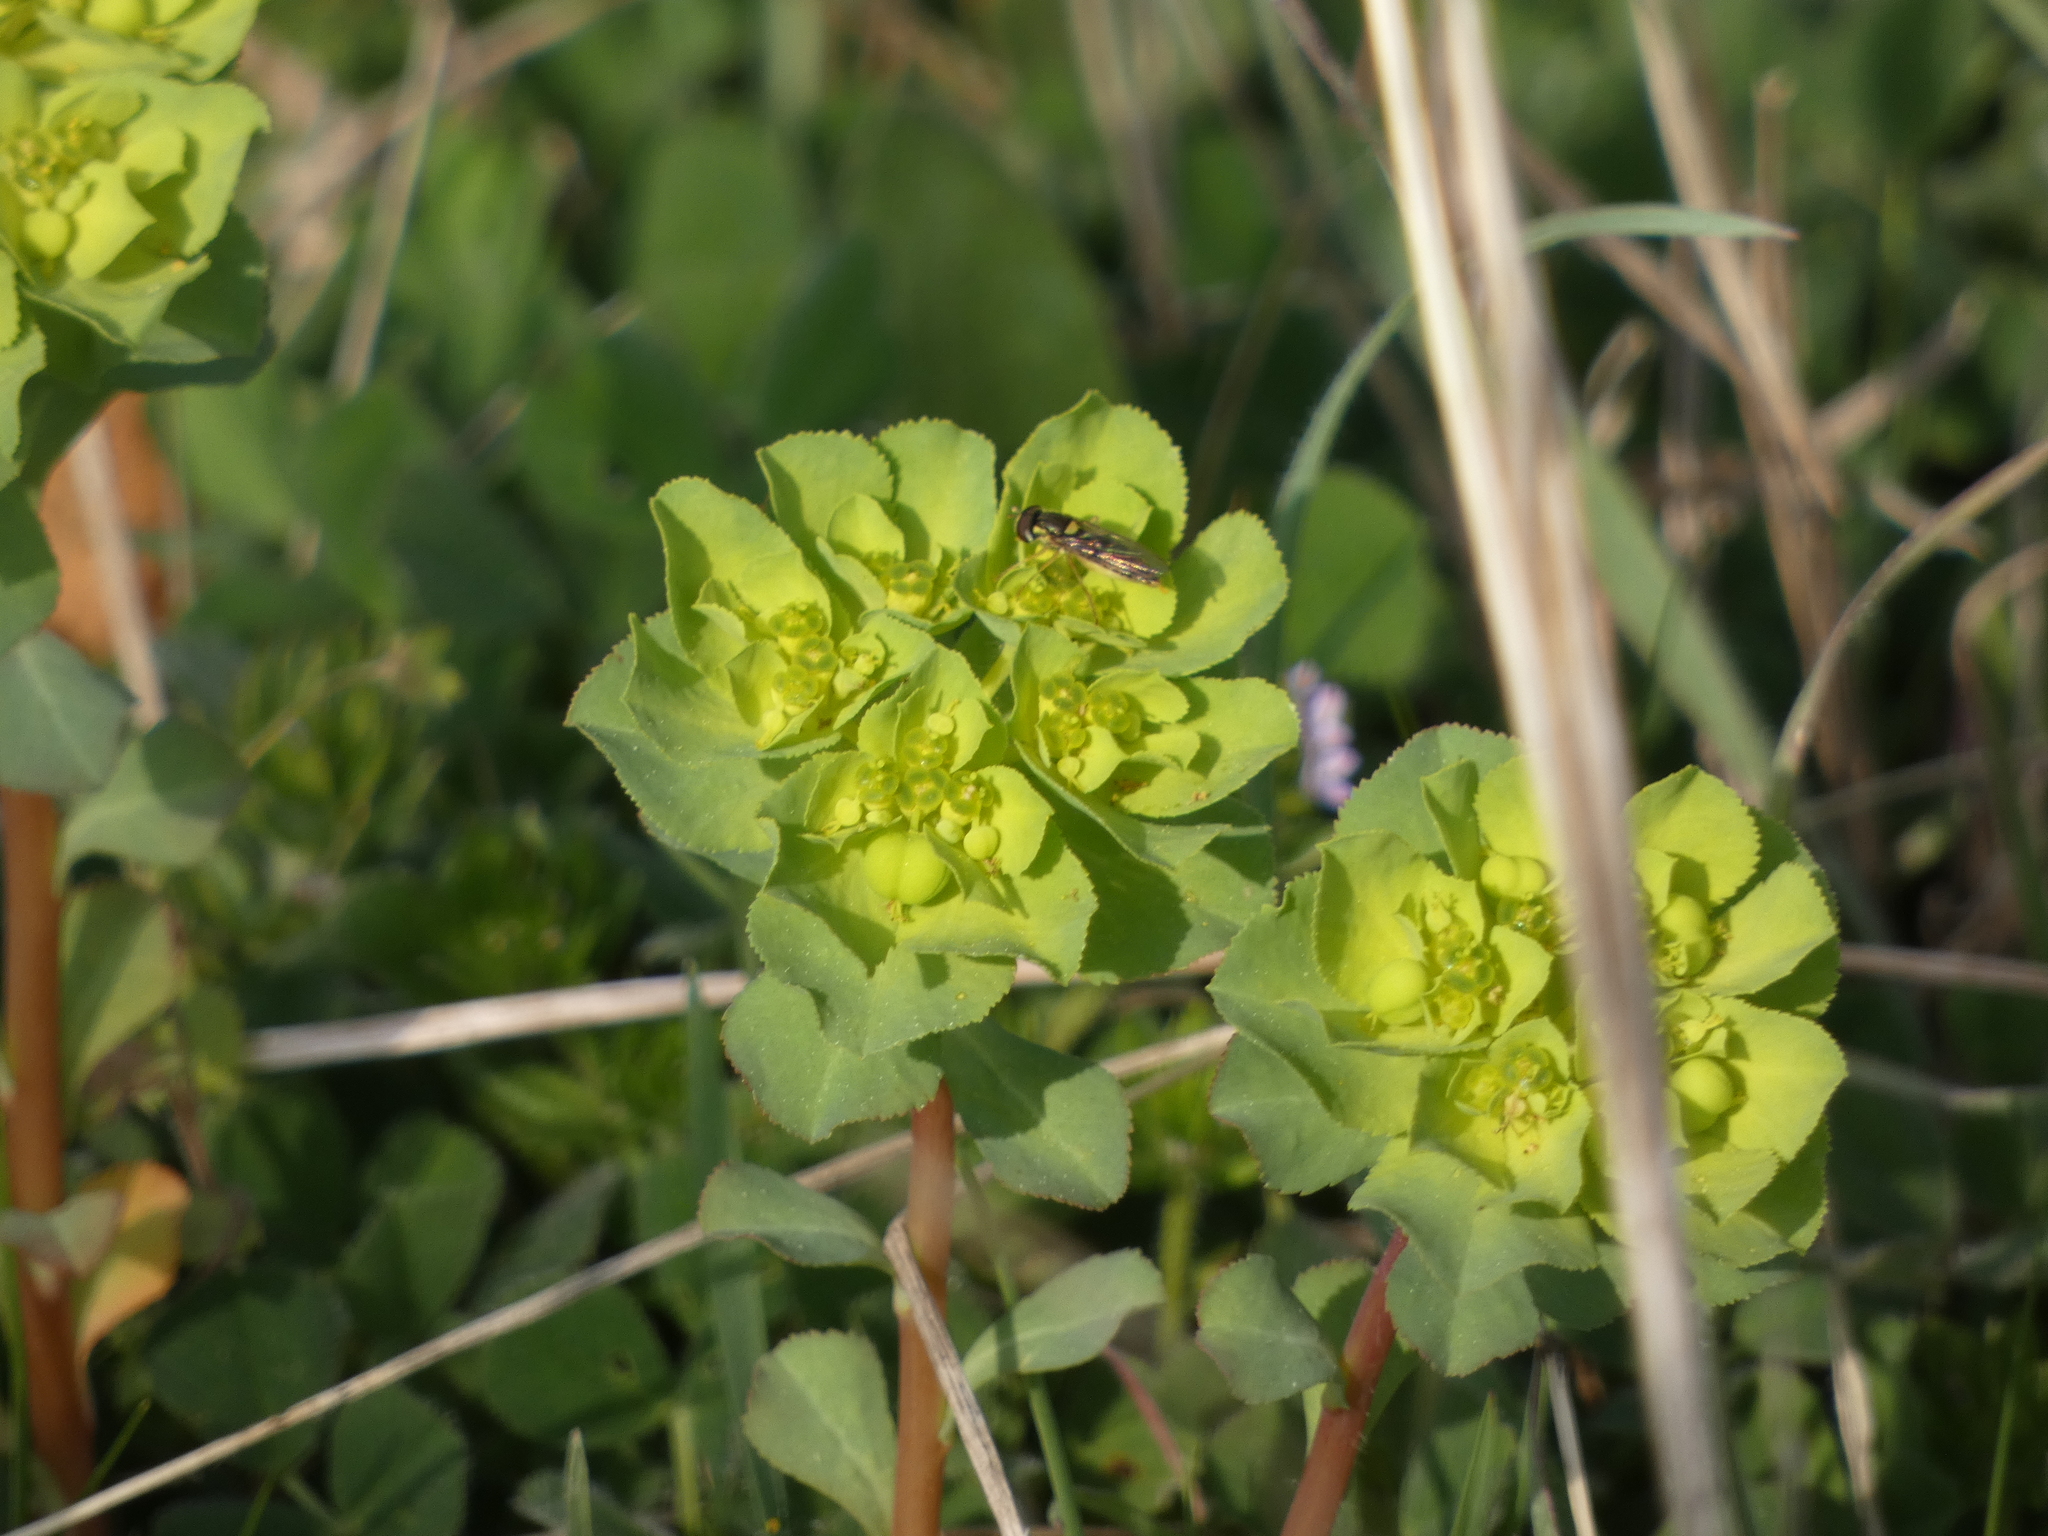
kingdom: Animalia
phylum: Arthropoda
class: Insecta
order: Diptera
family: Syrphidae
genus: Sphaerophoria
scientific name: Sphaerophoria
